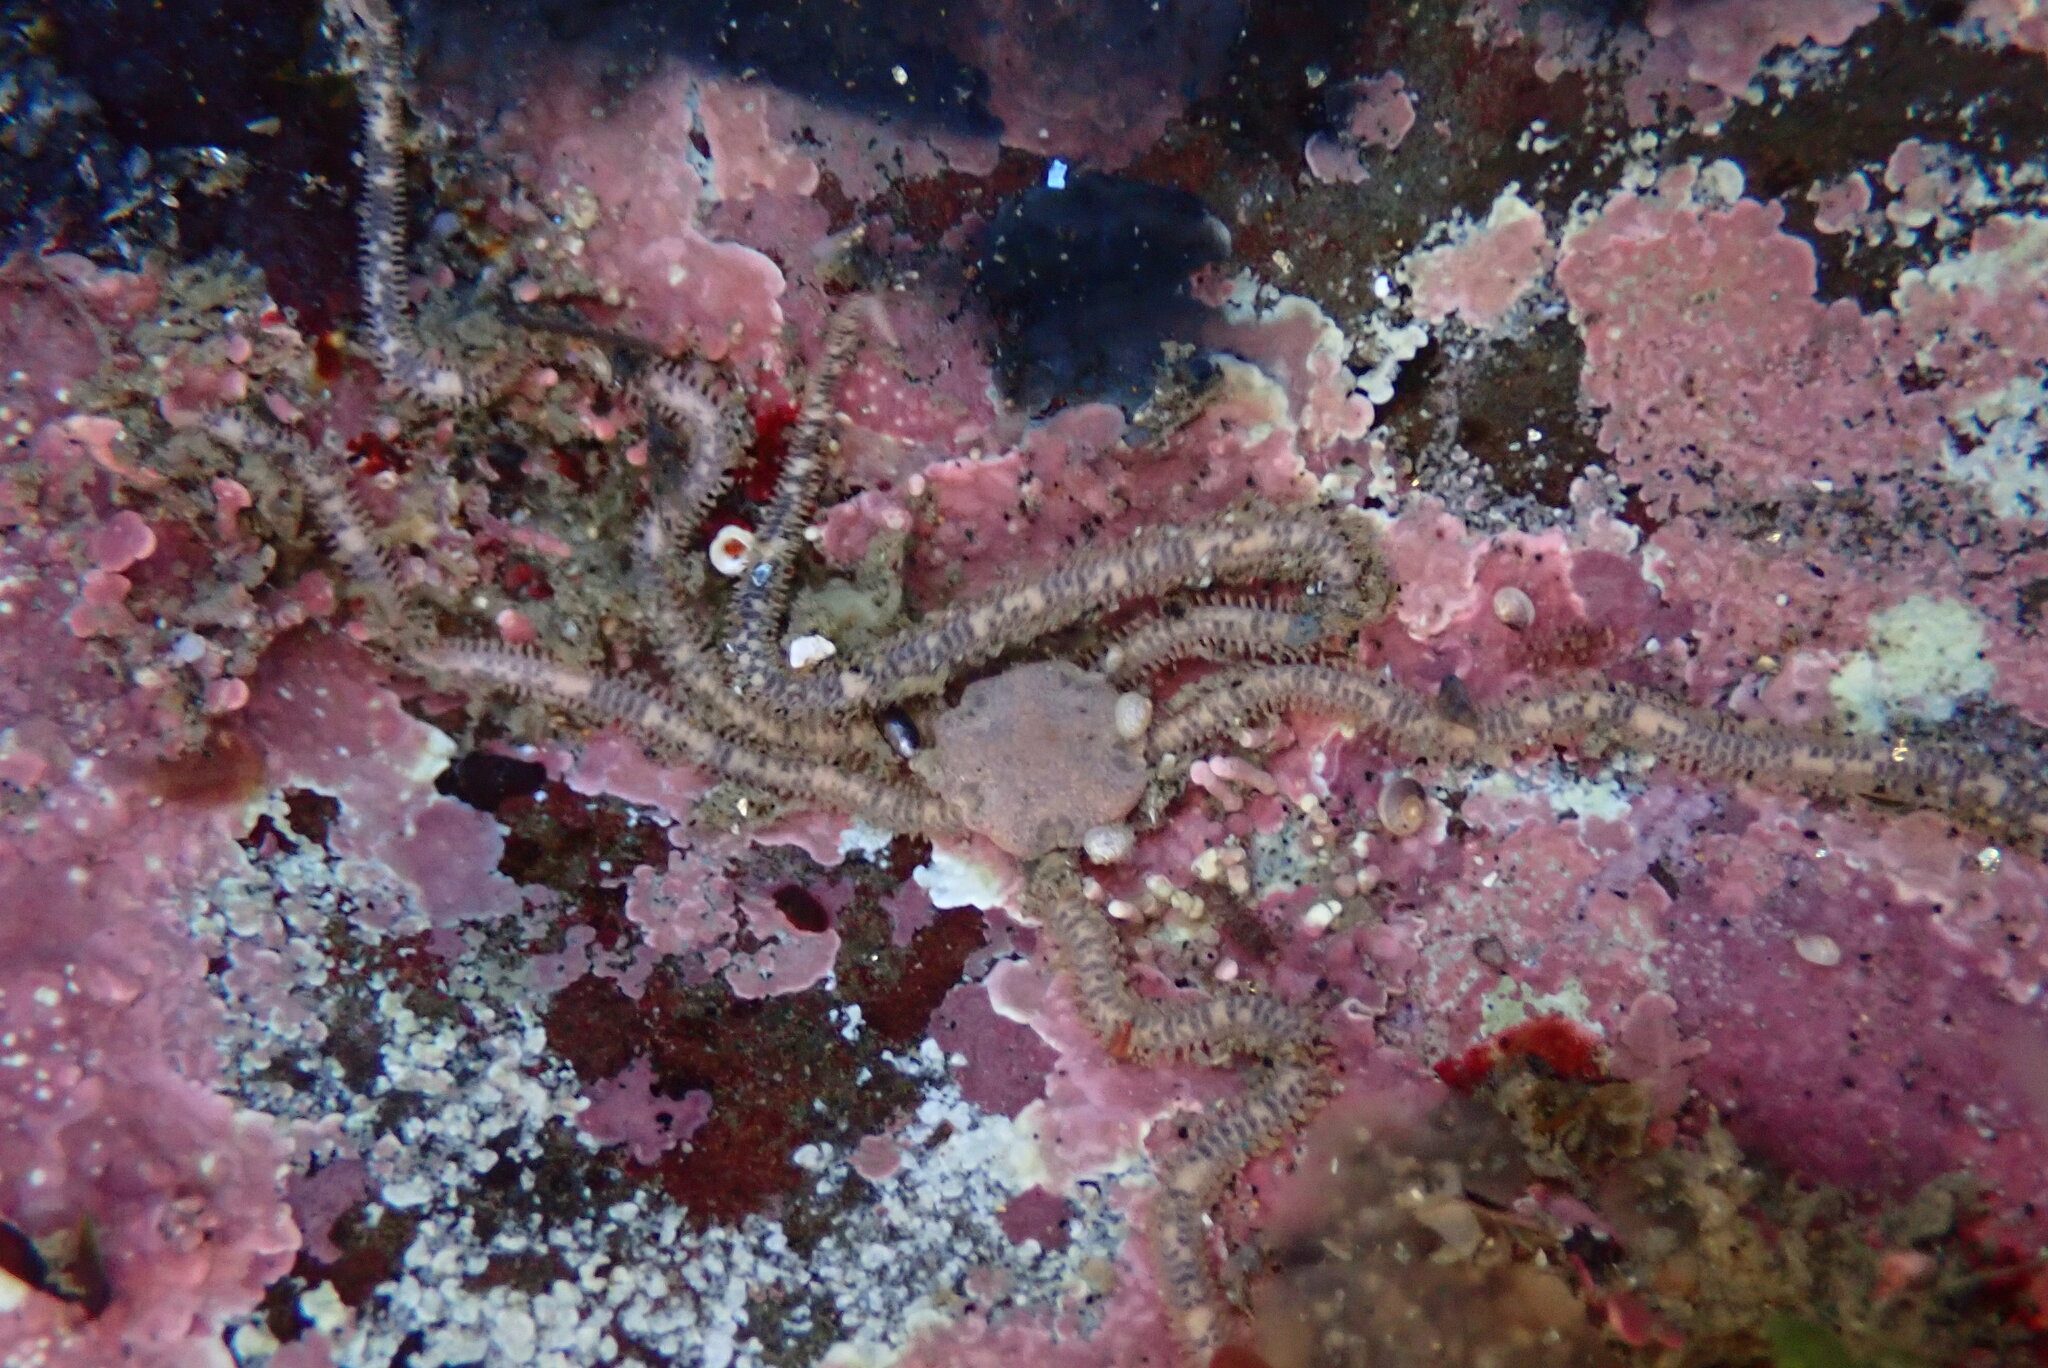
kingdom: Animalia
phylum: Echinodermata
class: Ophiuroidea
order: Amphilepidida
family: Amphiuridae
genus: Amphiodia
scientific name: Amphiodia occidentalis
